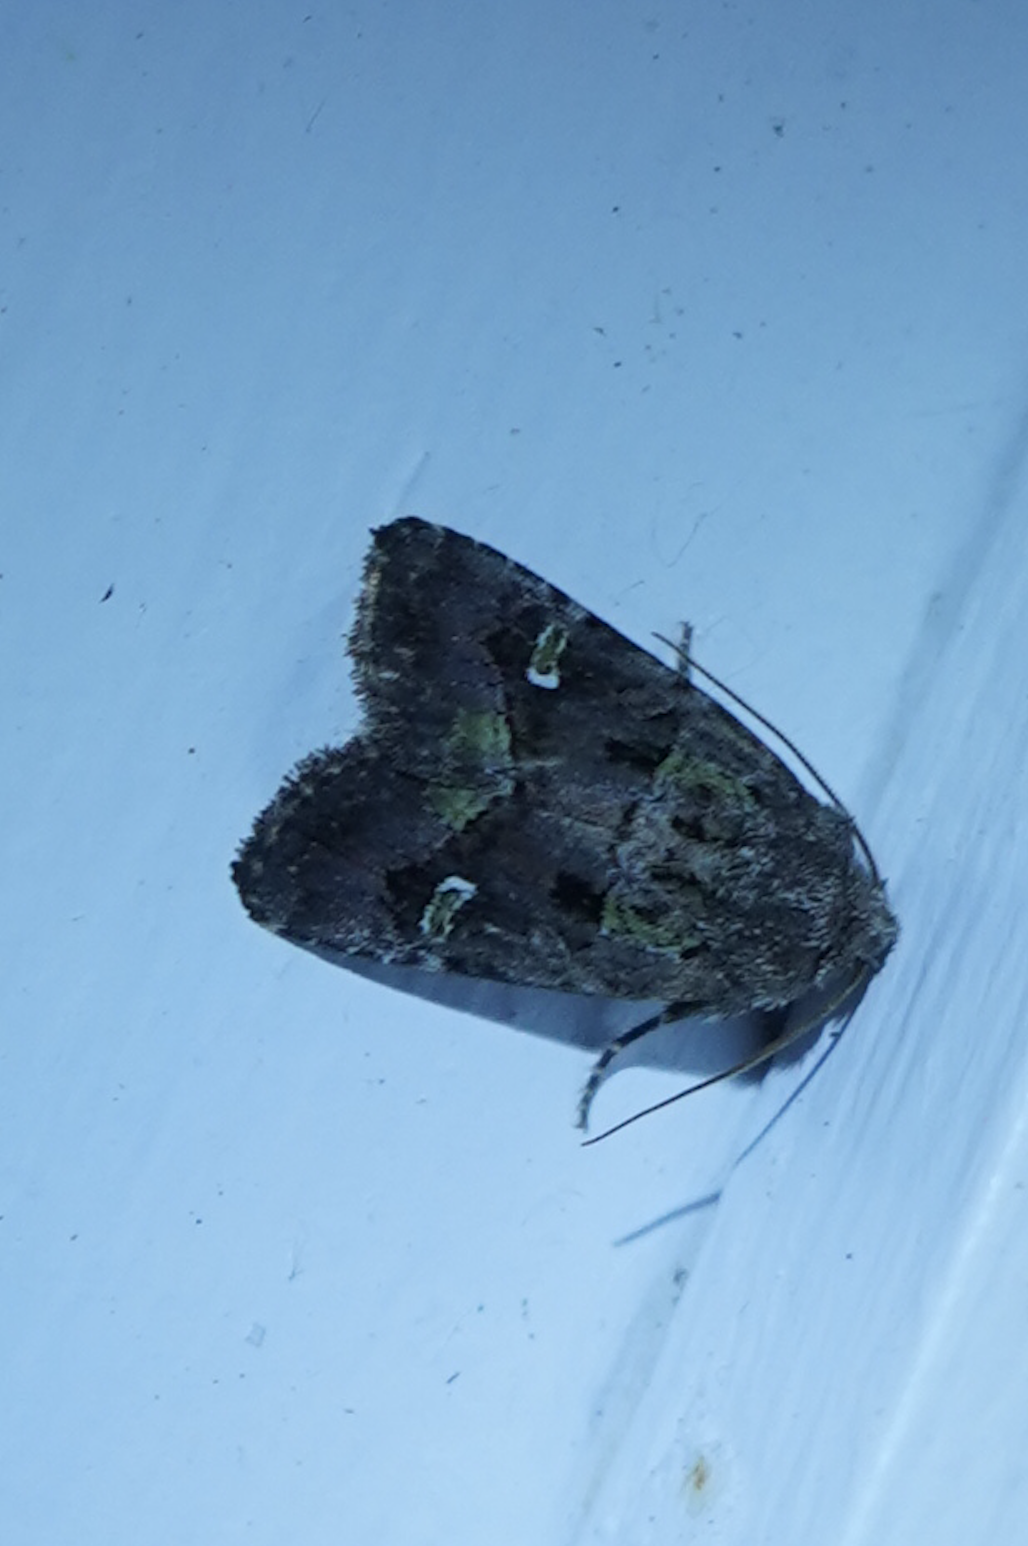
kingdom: Animalia
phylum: Arthropoda
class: Insecta
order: Lepidoptera
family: Noctuidae
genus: Lacinipolia
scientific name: Lacinipolia renigera
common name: Kidney-spotted minor
